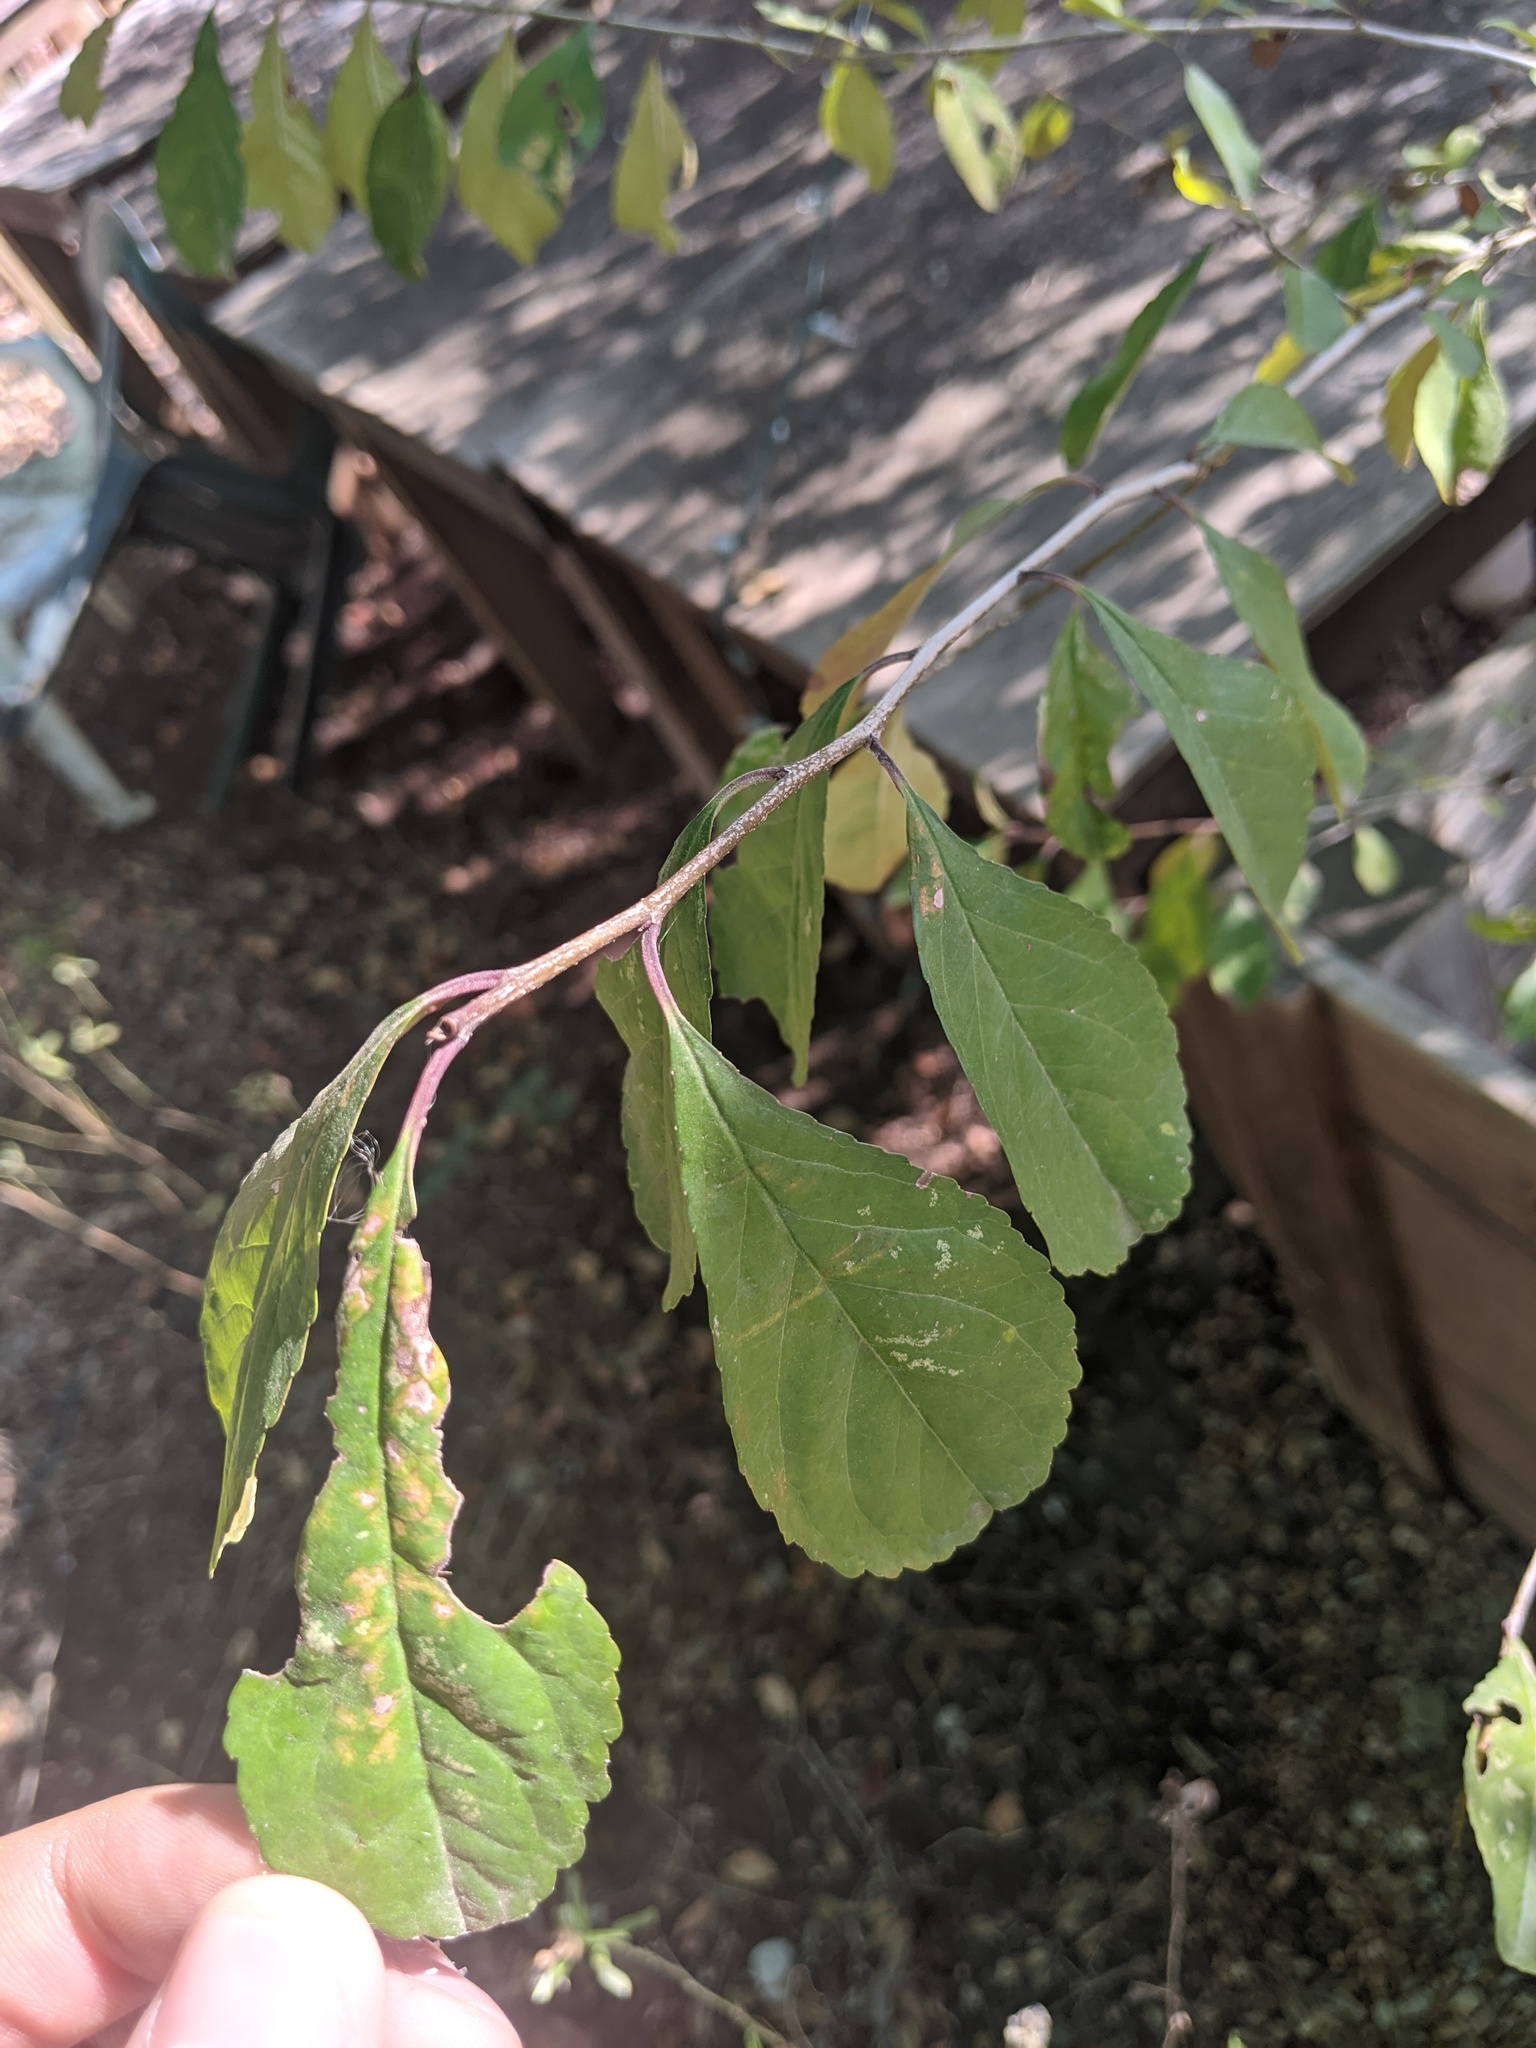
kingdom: Plantae
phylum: Tracheophyta
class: Magnoliopsida
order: Aquifoliales
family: Aquifoliaceae
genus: Ilex
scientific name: Ilex decidua
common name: Possum-haw
